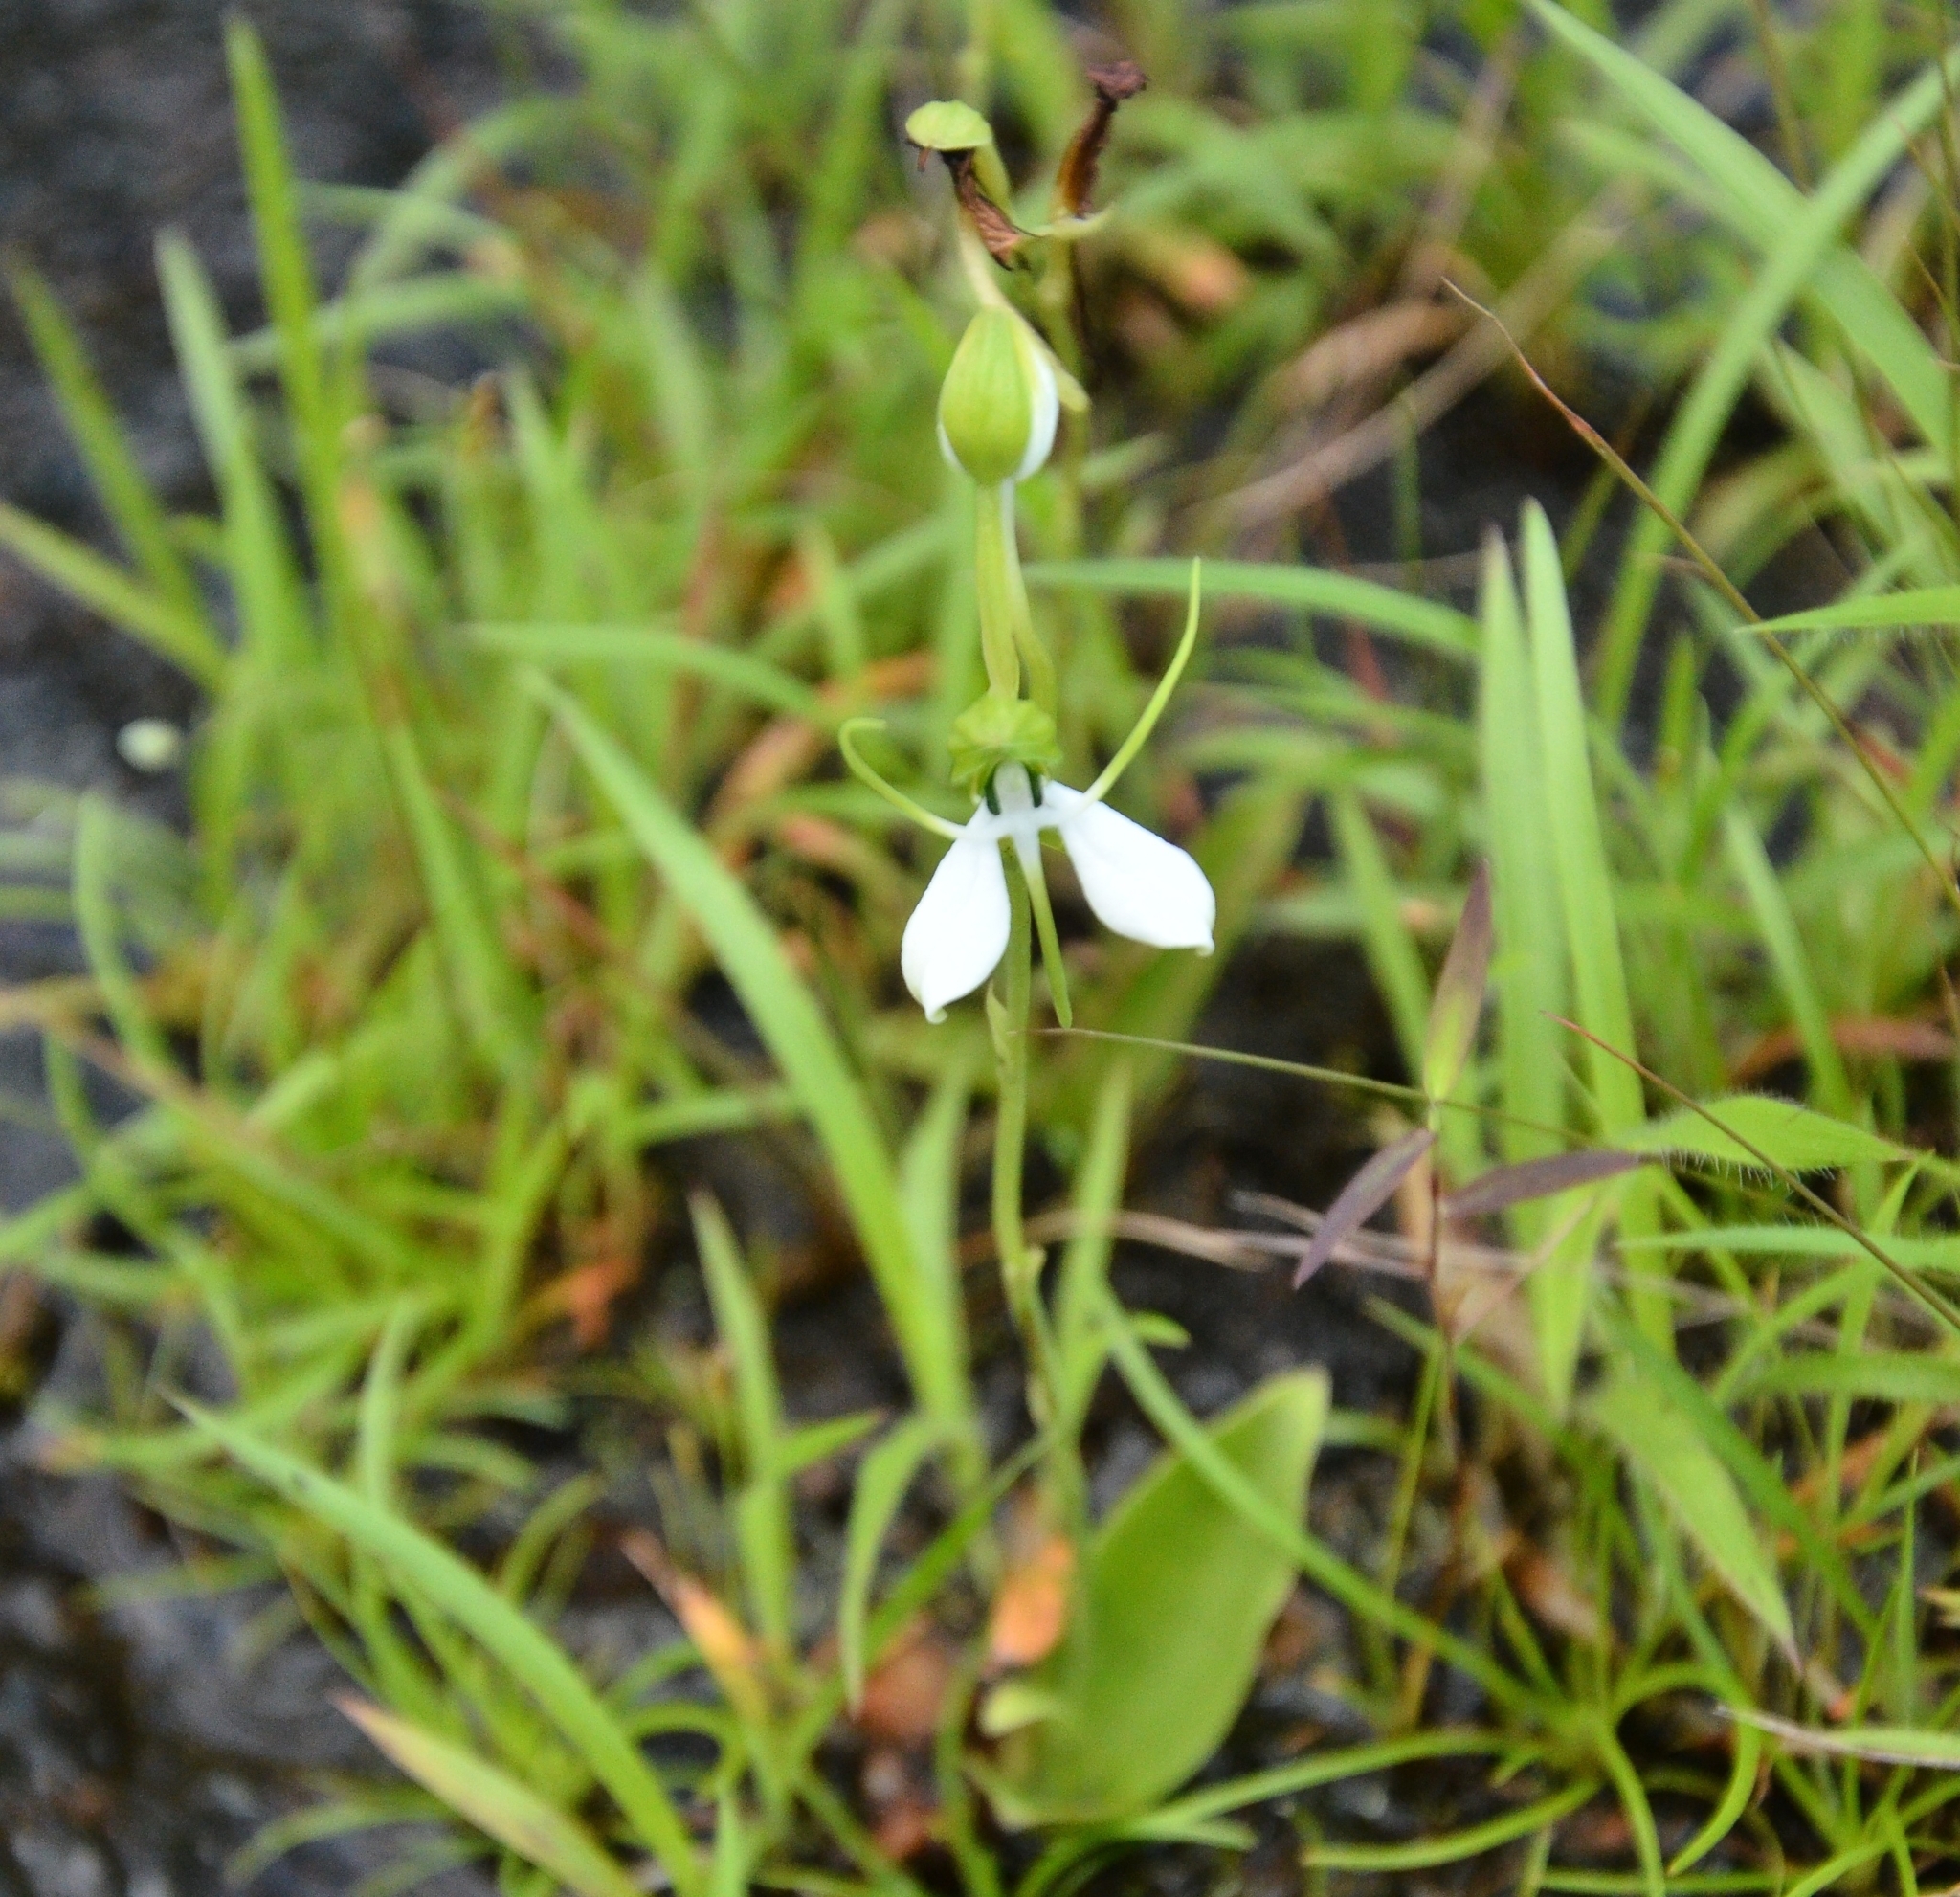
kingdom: Plantae
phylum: Tracheophyta
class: Liliopsida
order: Asparagales
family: Orchidaceae
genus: Habenaria
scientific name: Habenaria diphylla
